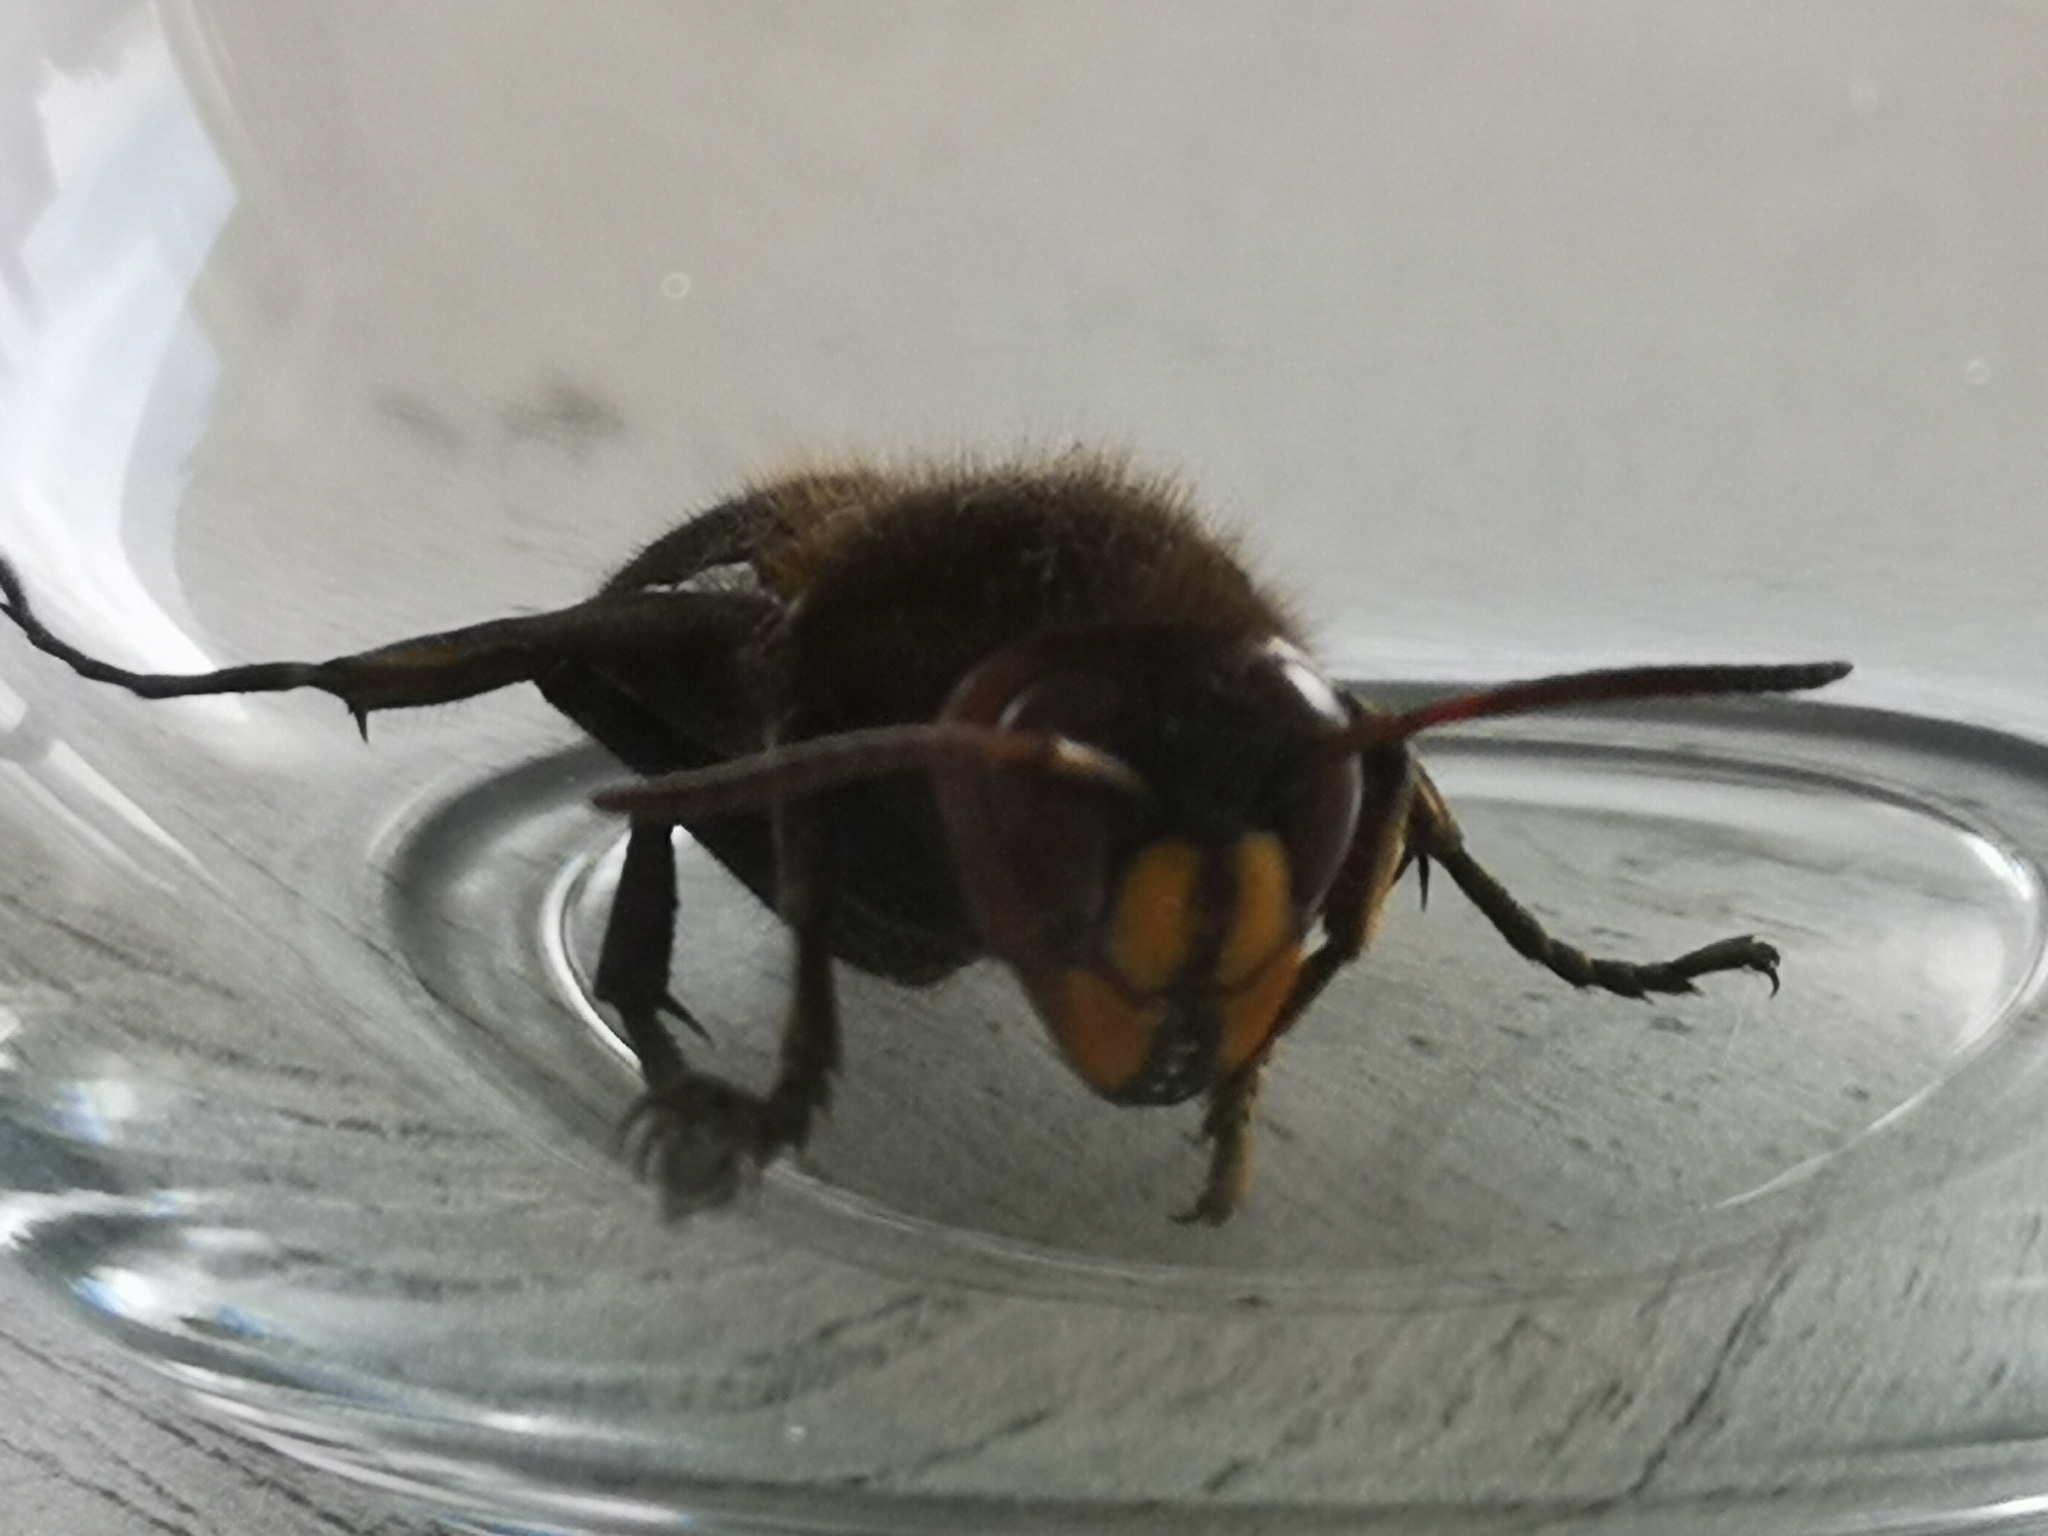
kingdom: Animalia
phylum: Arthropoda
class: Insecta
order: Hymenoptera
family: Vespidae
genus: Vespa
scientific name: Vespa crabro
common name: Hornet
